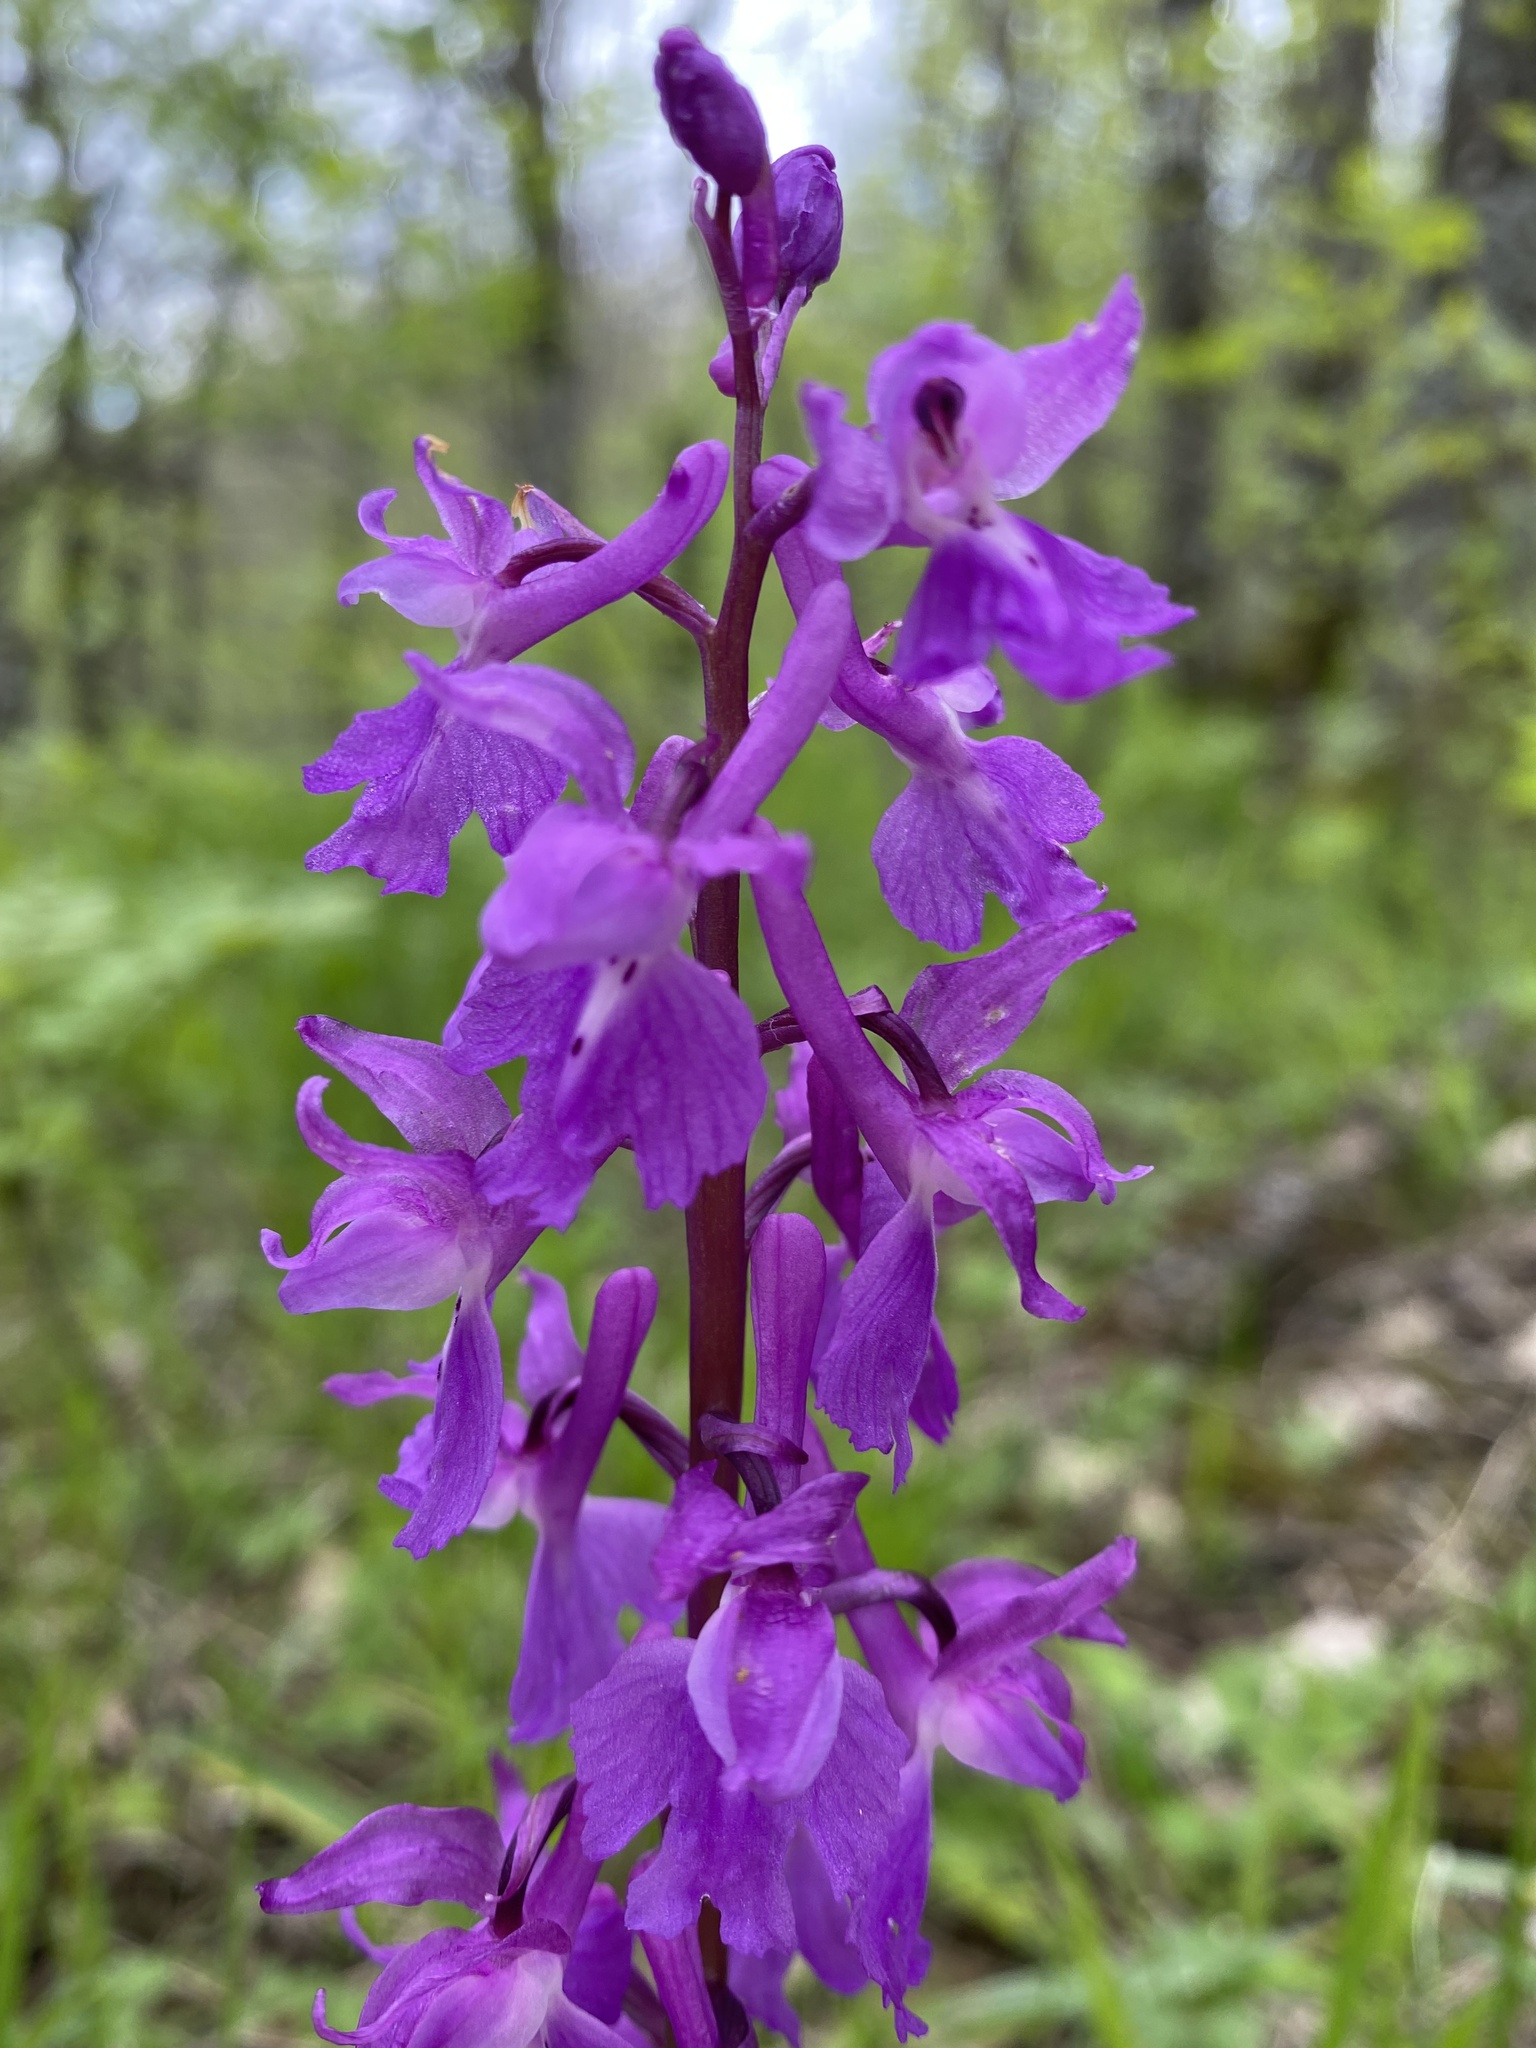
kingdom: Plantae
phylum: Tracheophyta
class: Liliopsida
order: Asparagales
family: Orchidaceae
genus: Orchis
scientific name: Orchis mascula
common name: Early-purple orchid
